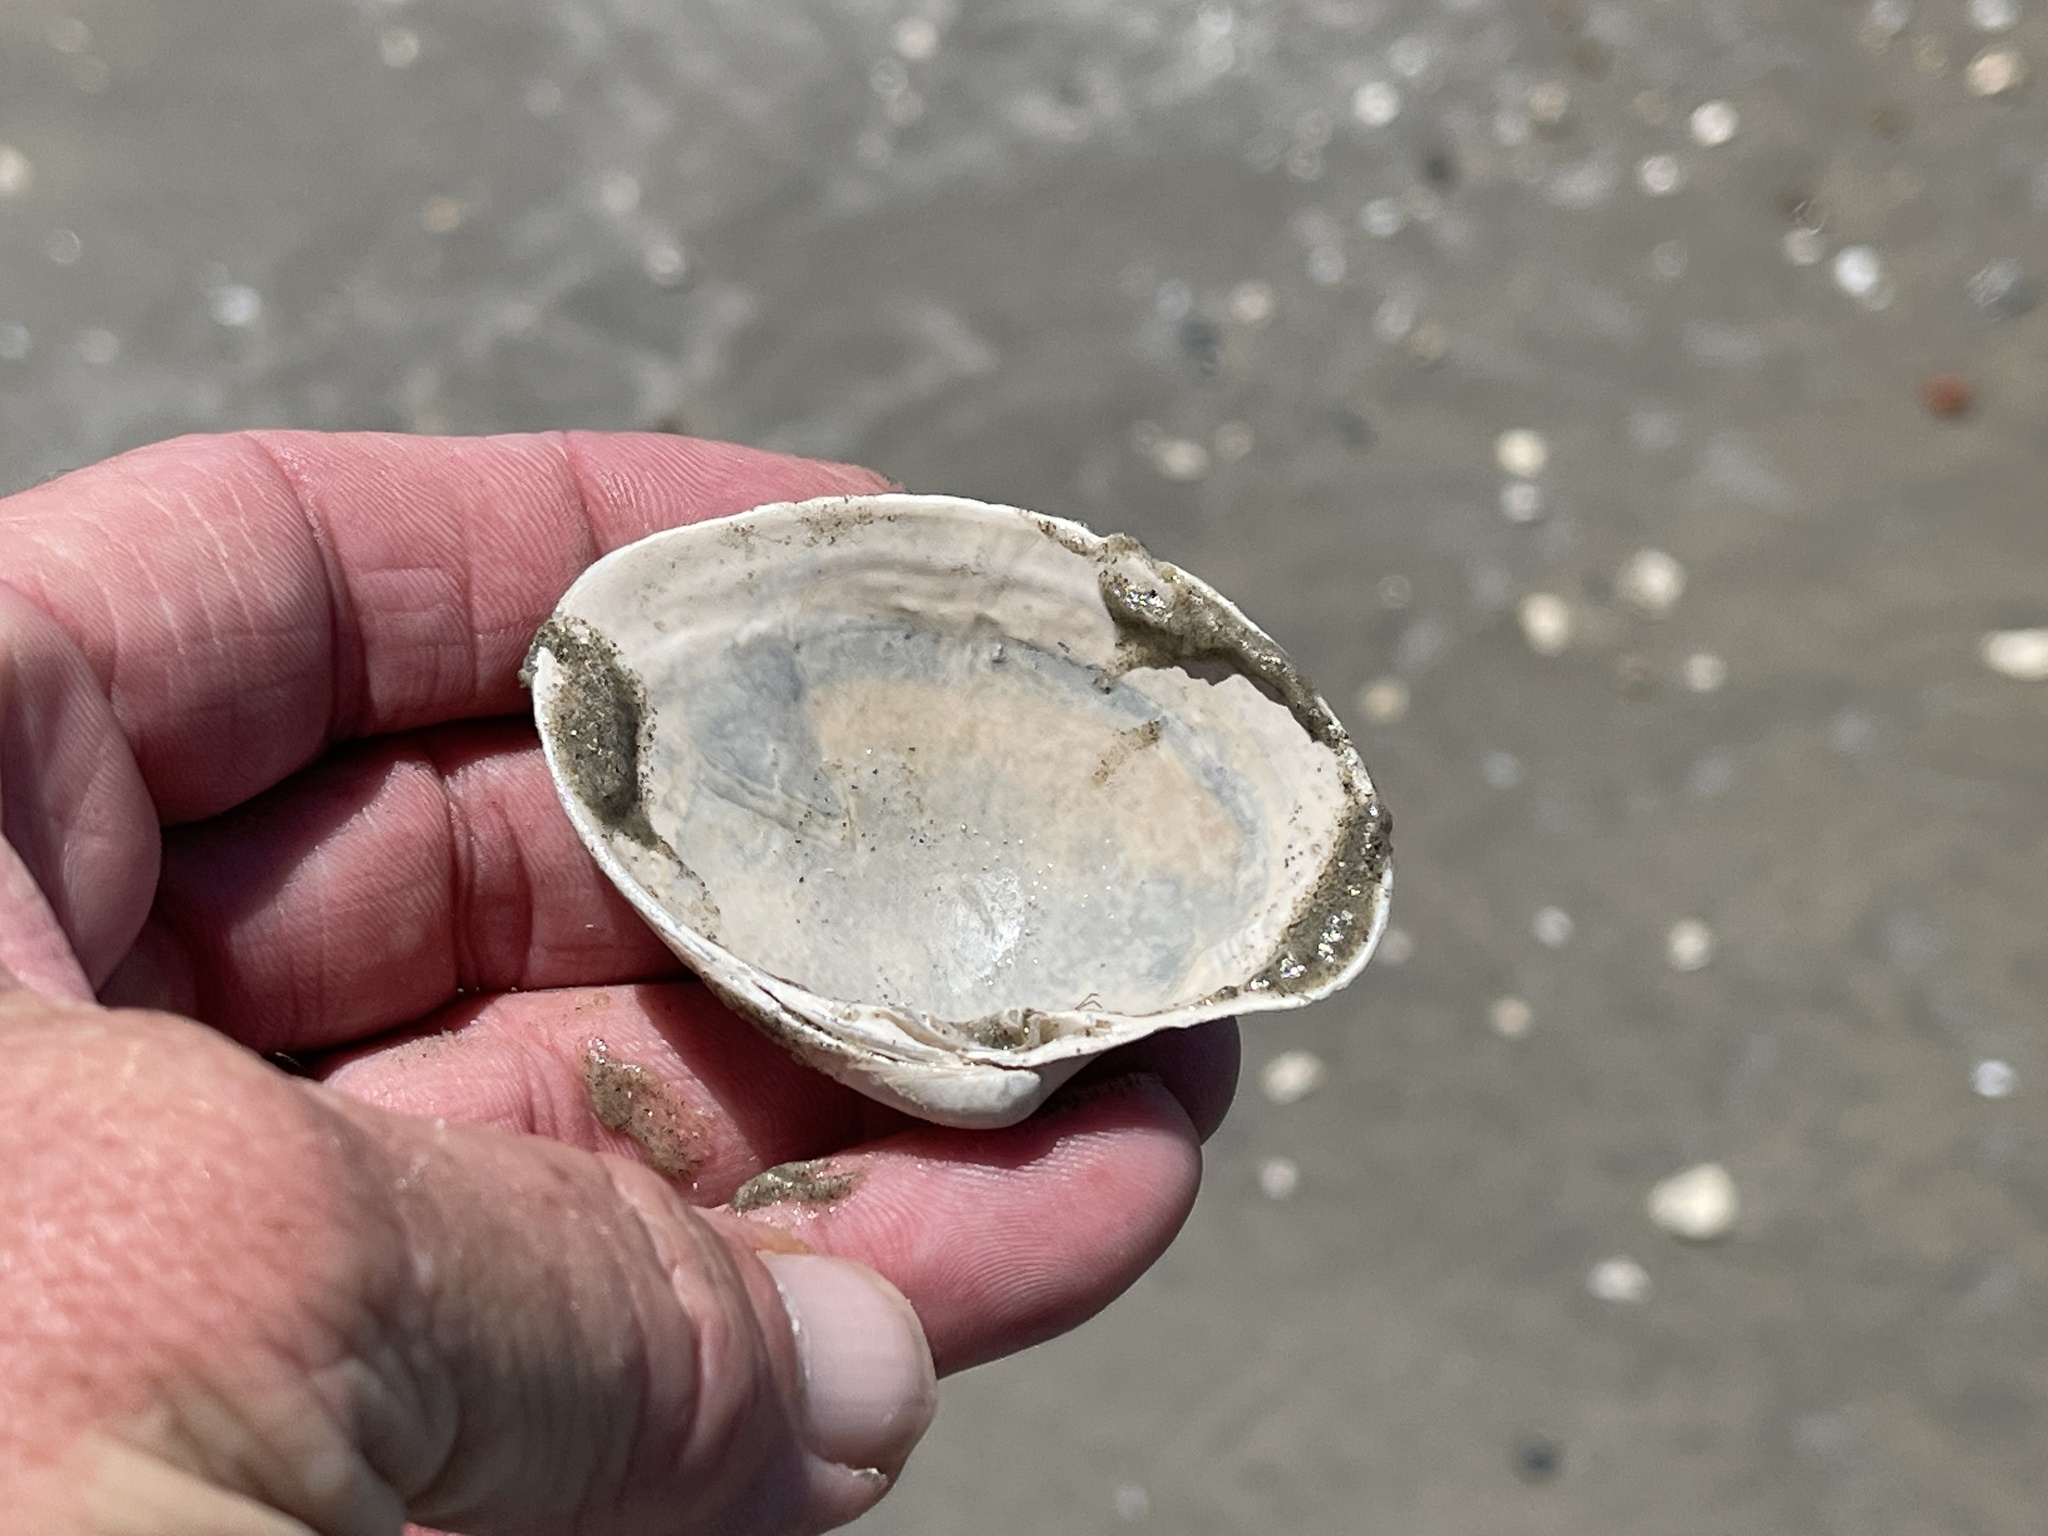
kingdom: Animalia
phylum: Mollusca
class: Bivalvia
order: Venerida
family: Veneridae
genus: Agriopoma
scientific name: Agriopoma texasianum
